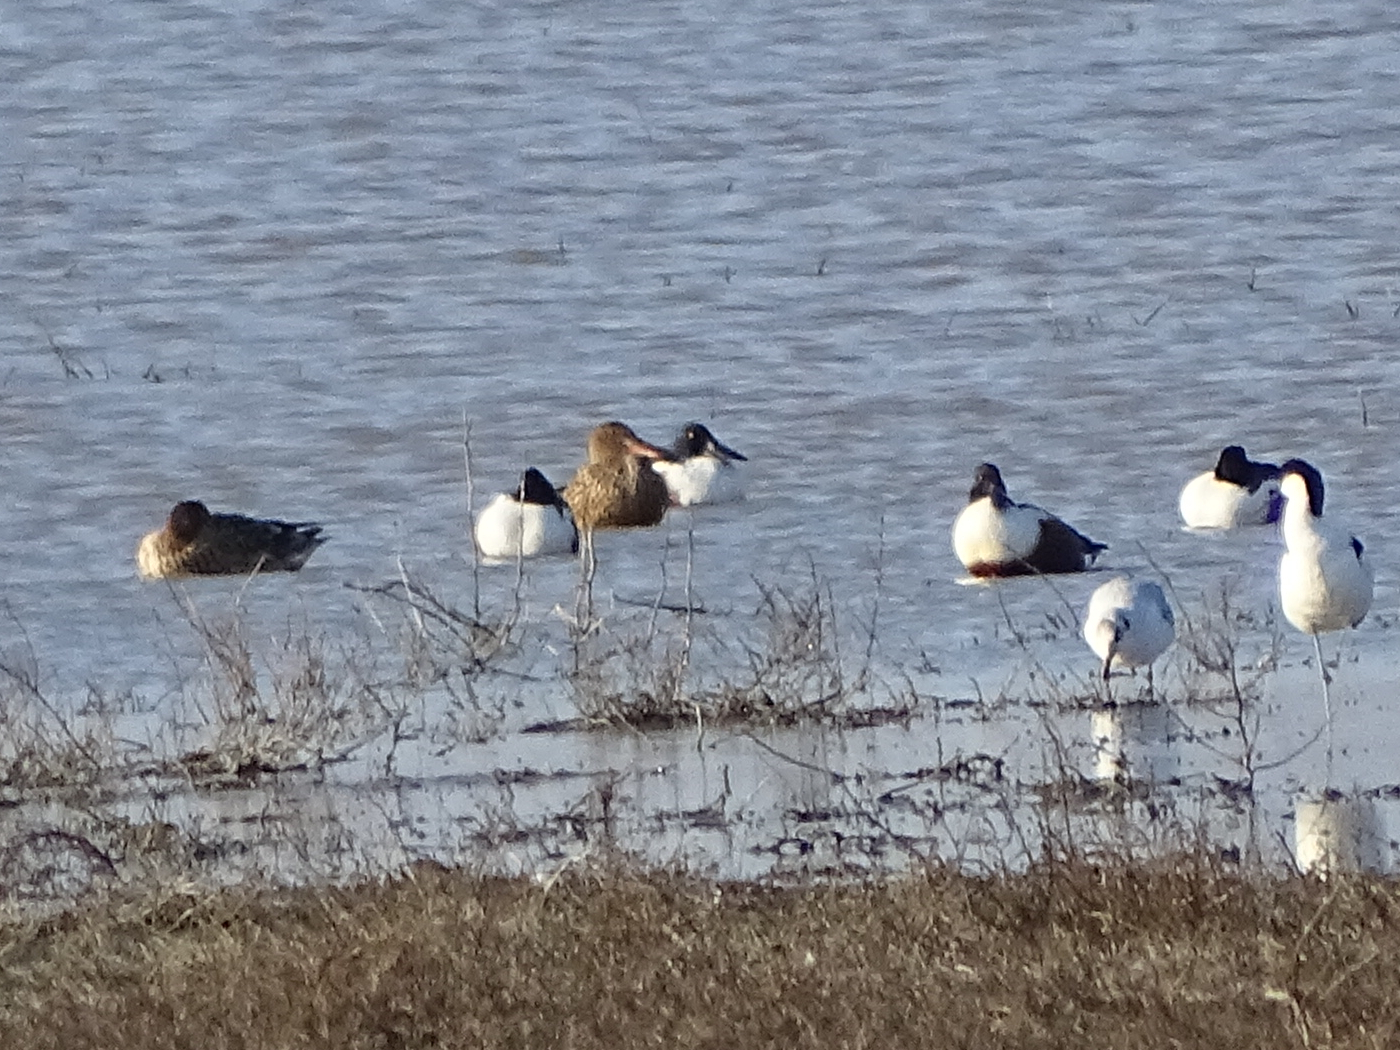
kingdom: Animalia
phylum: Chordata
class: Aves
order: Anseriformes
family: Anatidae
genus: Spatula
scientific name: Spatula clypeata
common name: Northern shoveler
